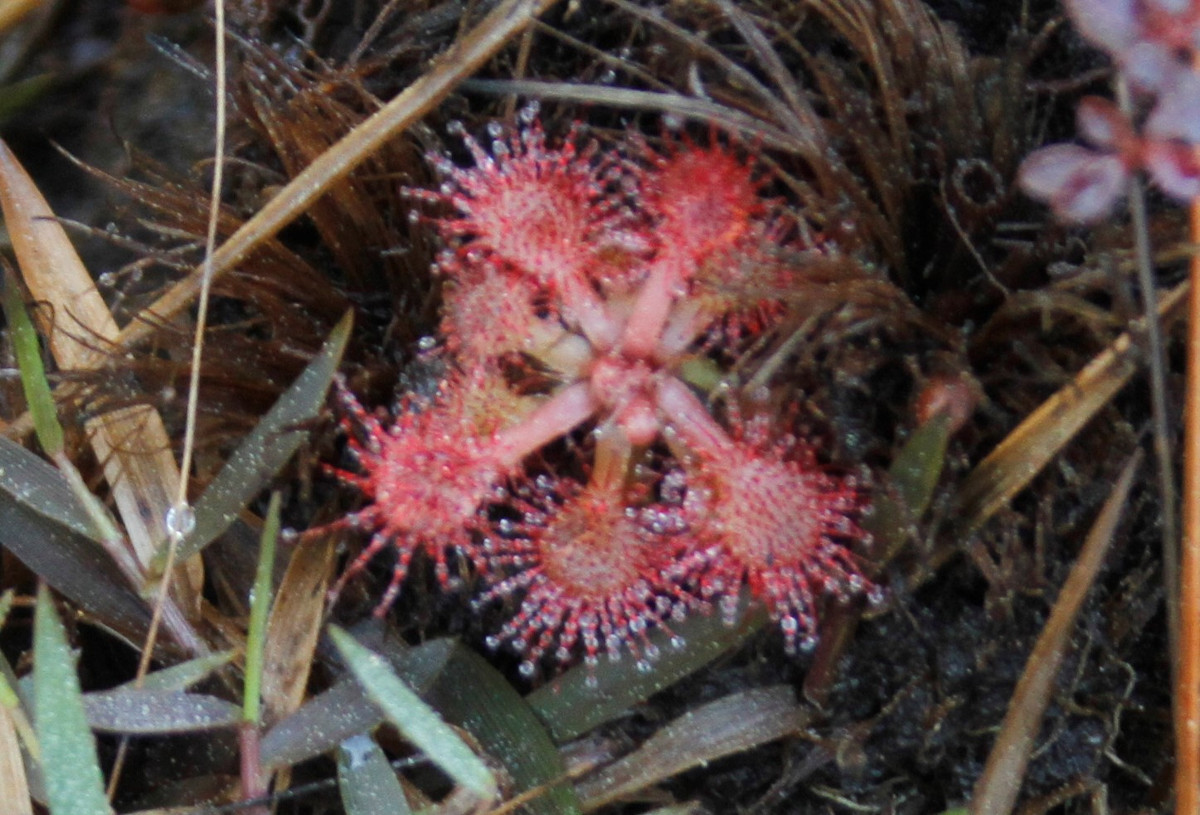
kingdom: Plantae
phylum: Tracheophyta
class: Magnoliopsida
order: Caryophyllales
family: Droseraceae
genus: Drosera
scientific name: Drosera capillaris
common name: Pink sundew
